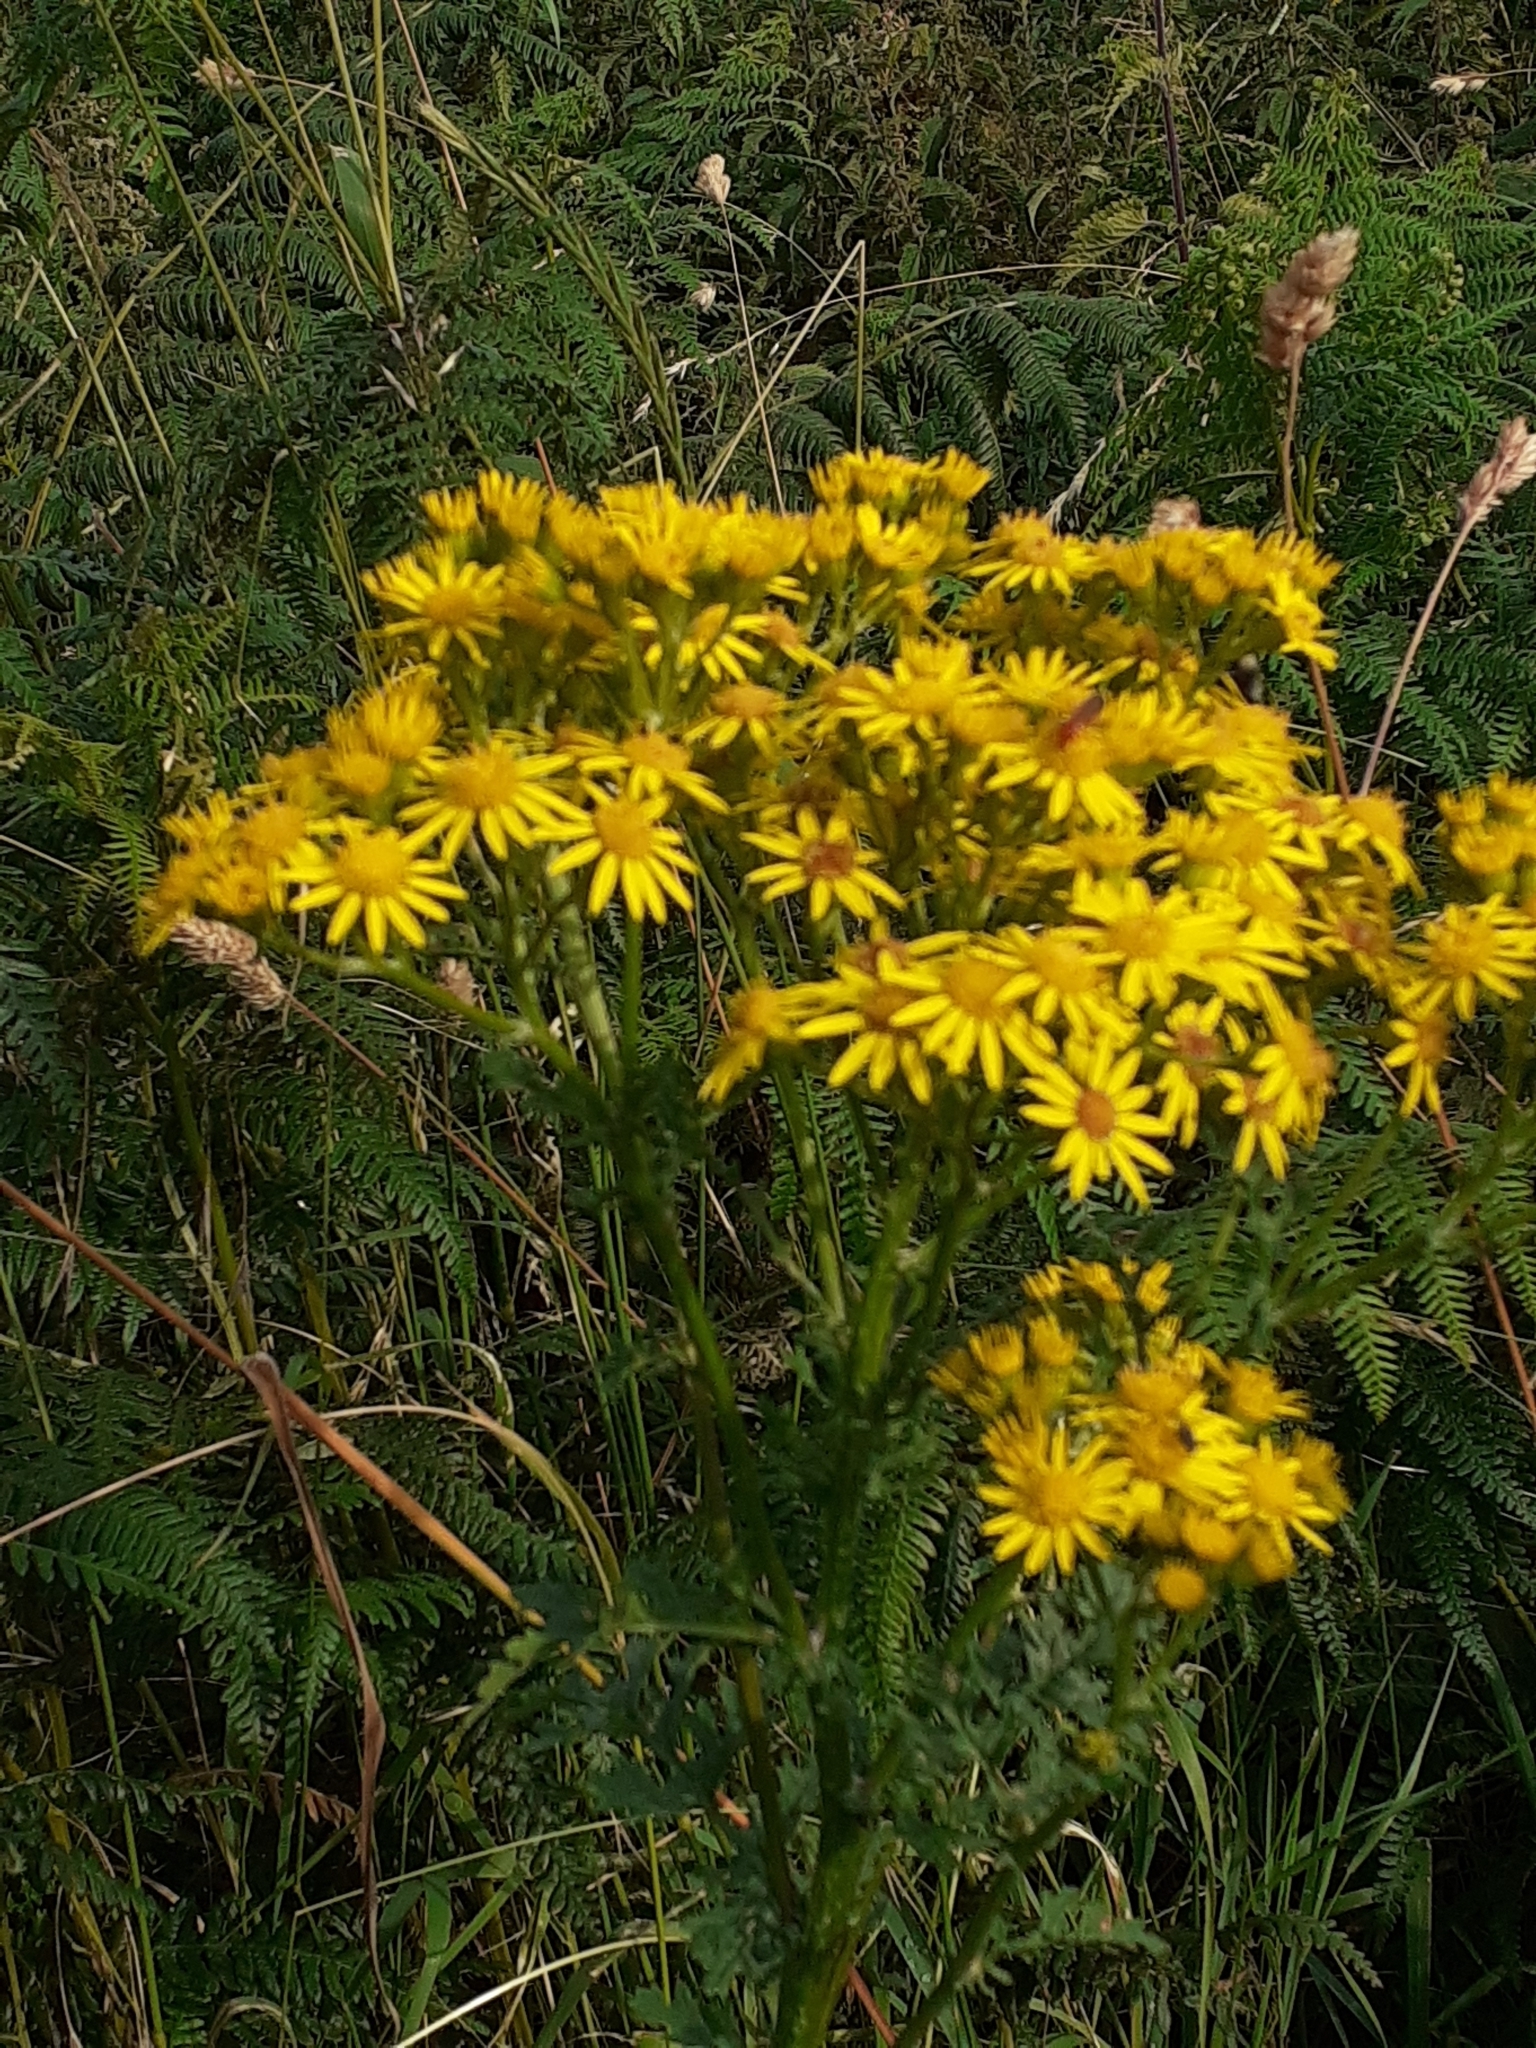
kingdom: Plantae
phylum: Tracheophyta
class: Magnoliopsida
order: Asterales
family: Asteraceae
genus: Jacobaea
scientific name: Jacobaea vulgaris
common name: Stinking willie
